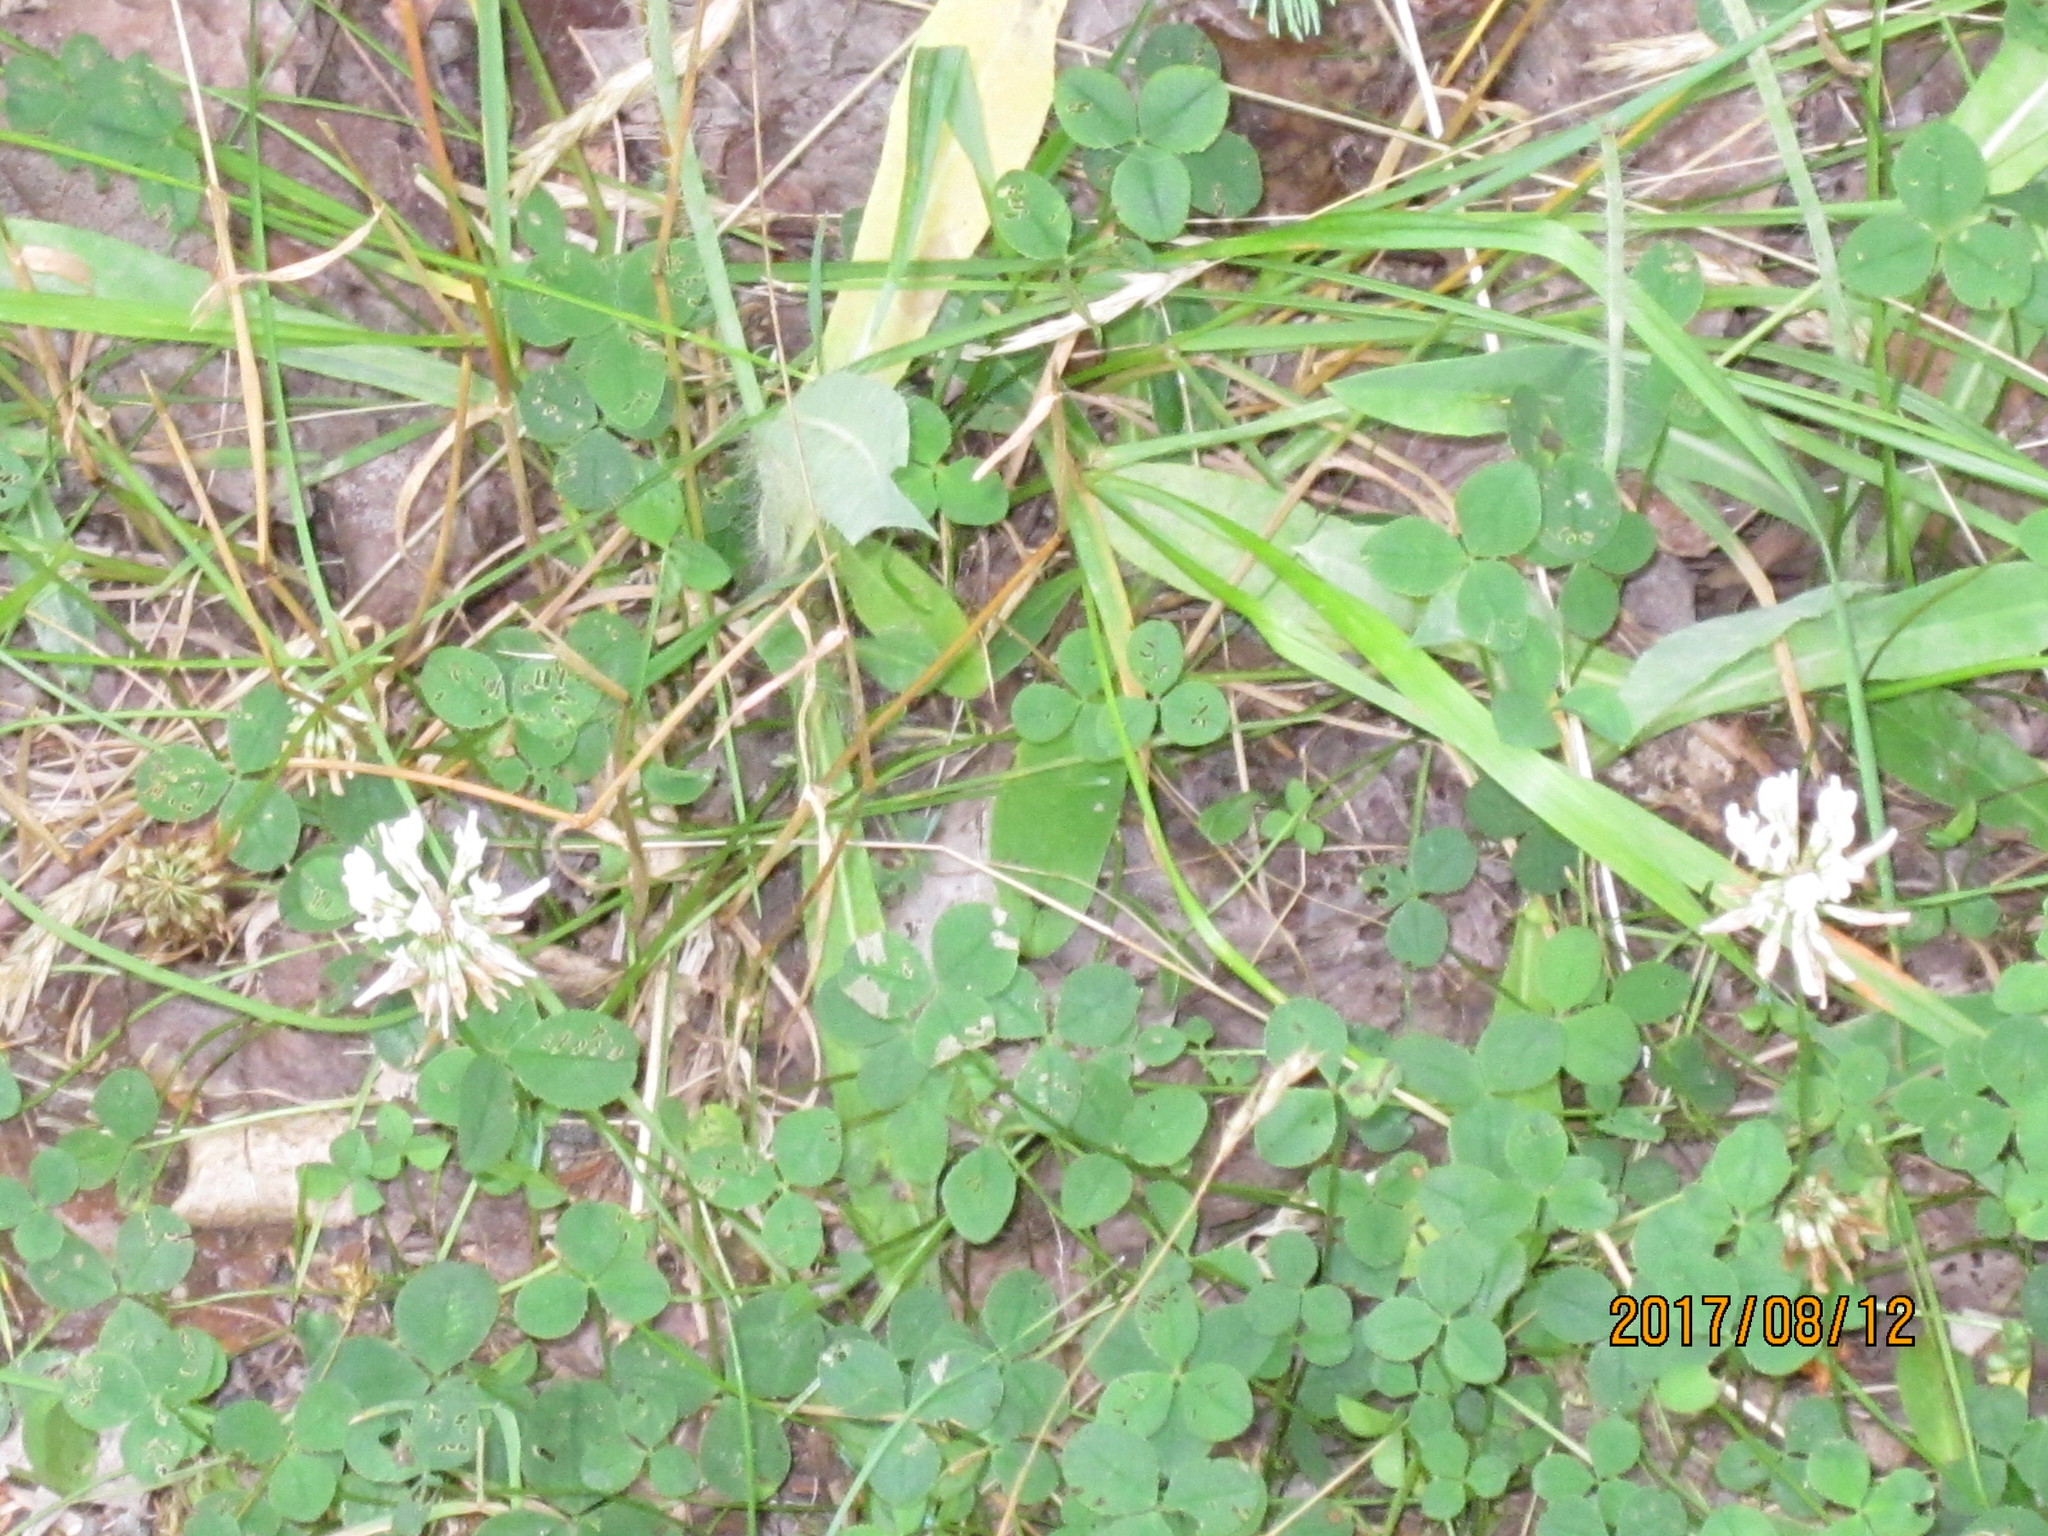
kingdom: Plantae
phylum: Tracheophyta
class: Magnoliopsida
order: Fabales
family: Fabaceae
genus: Trifolium
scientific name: Trifolium repens
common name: White clover
